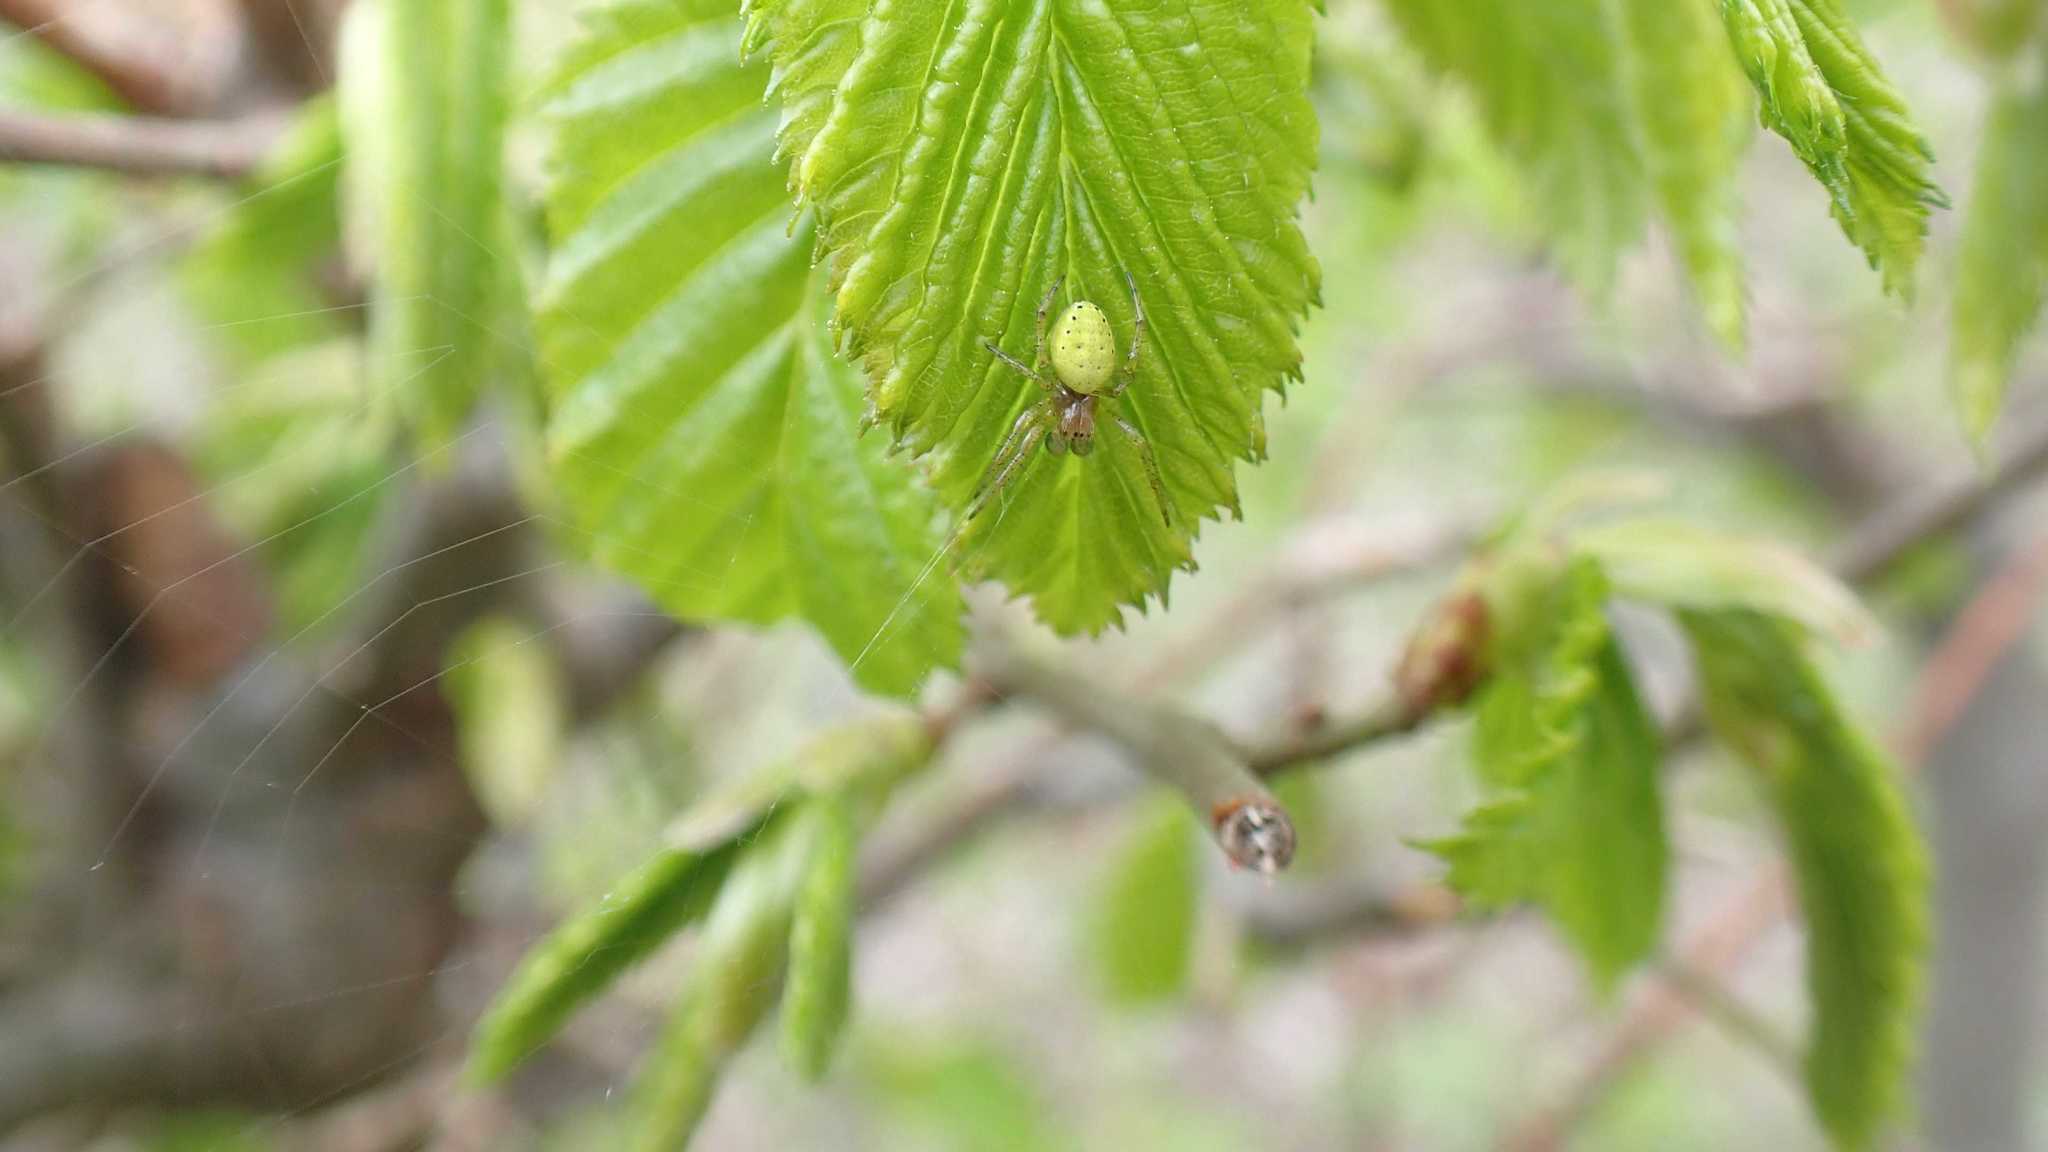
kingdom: Animalia
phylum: Arthropoda
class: Arachnida
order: Araneae
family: Araneidae
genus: Araniella
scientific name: Araniella
